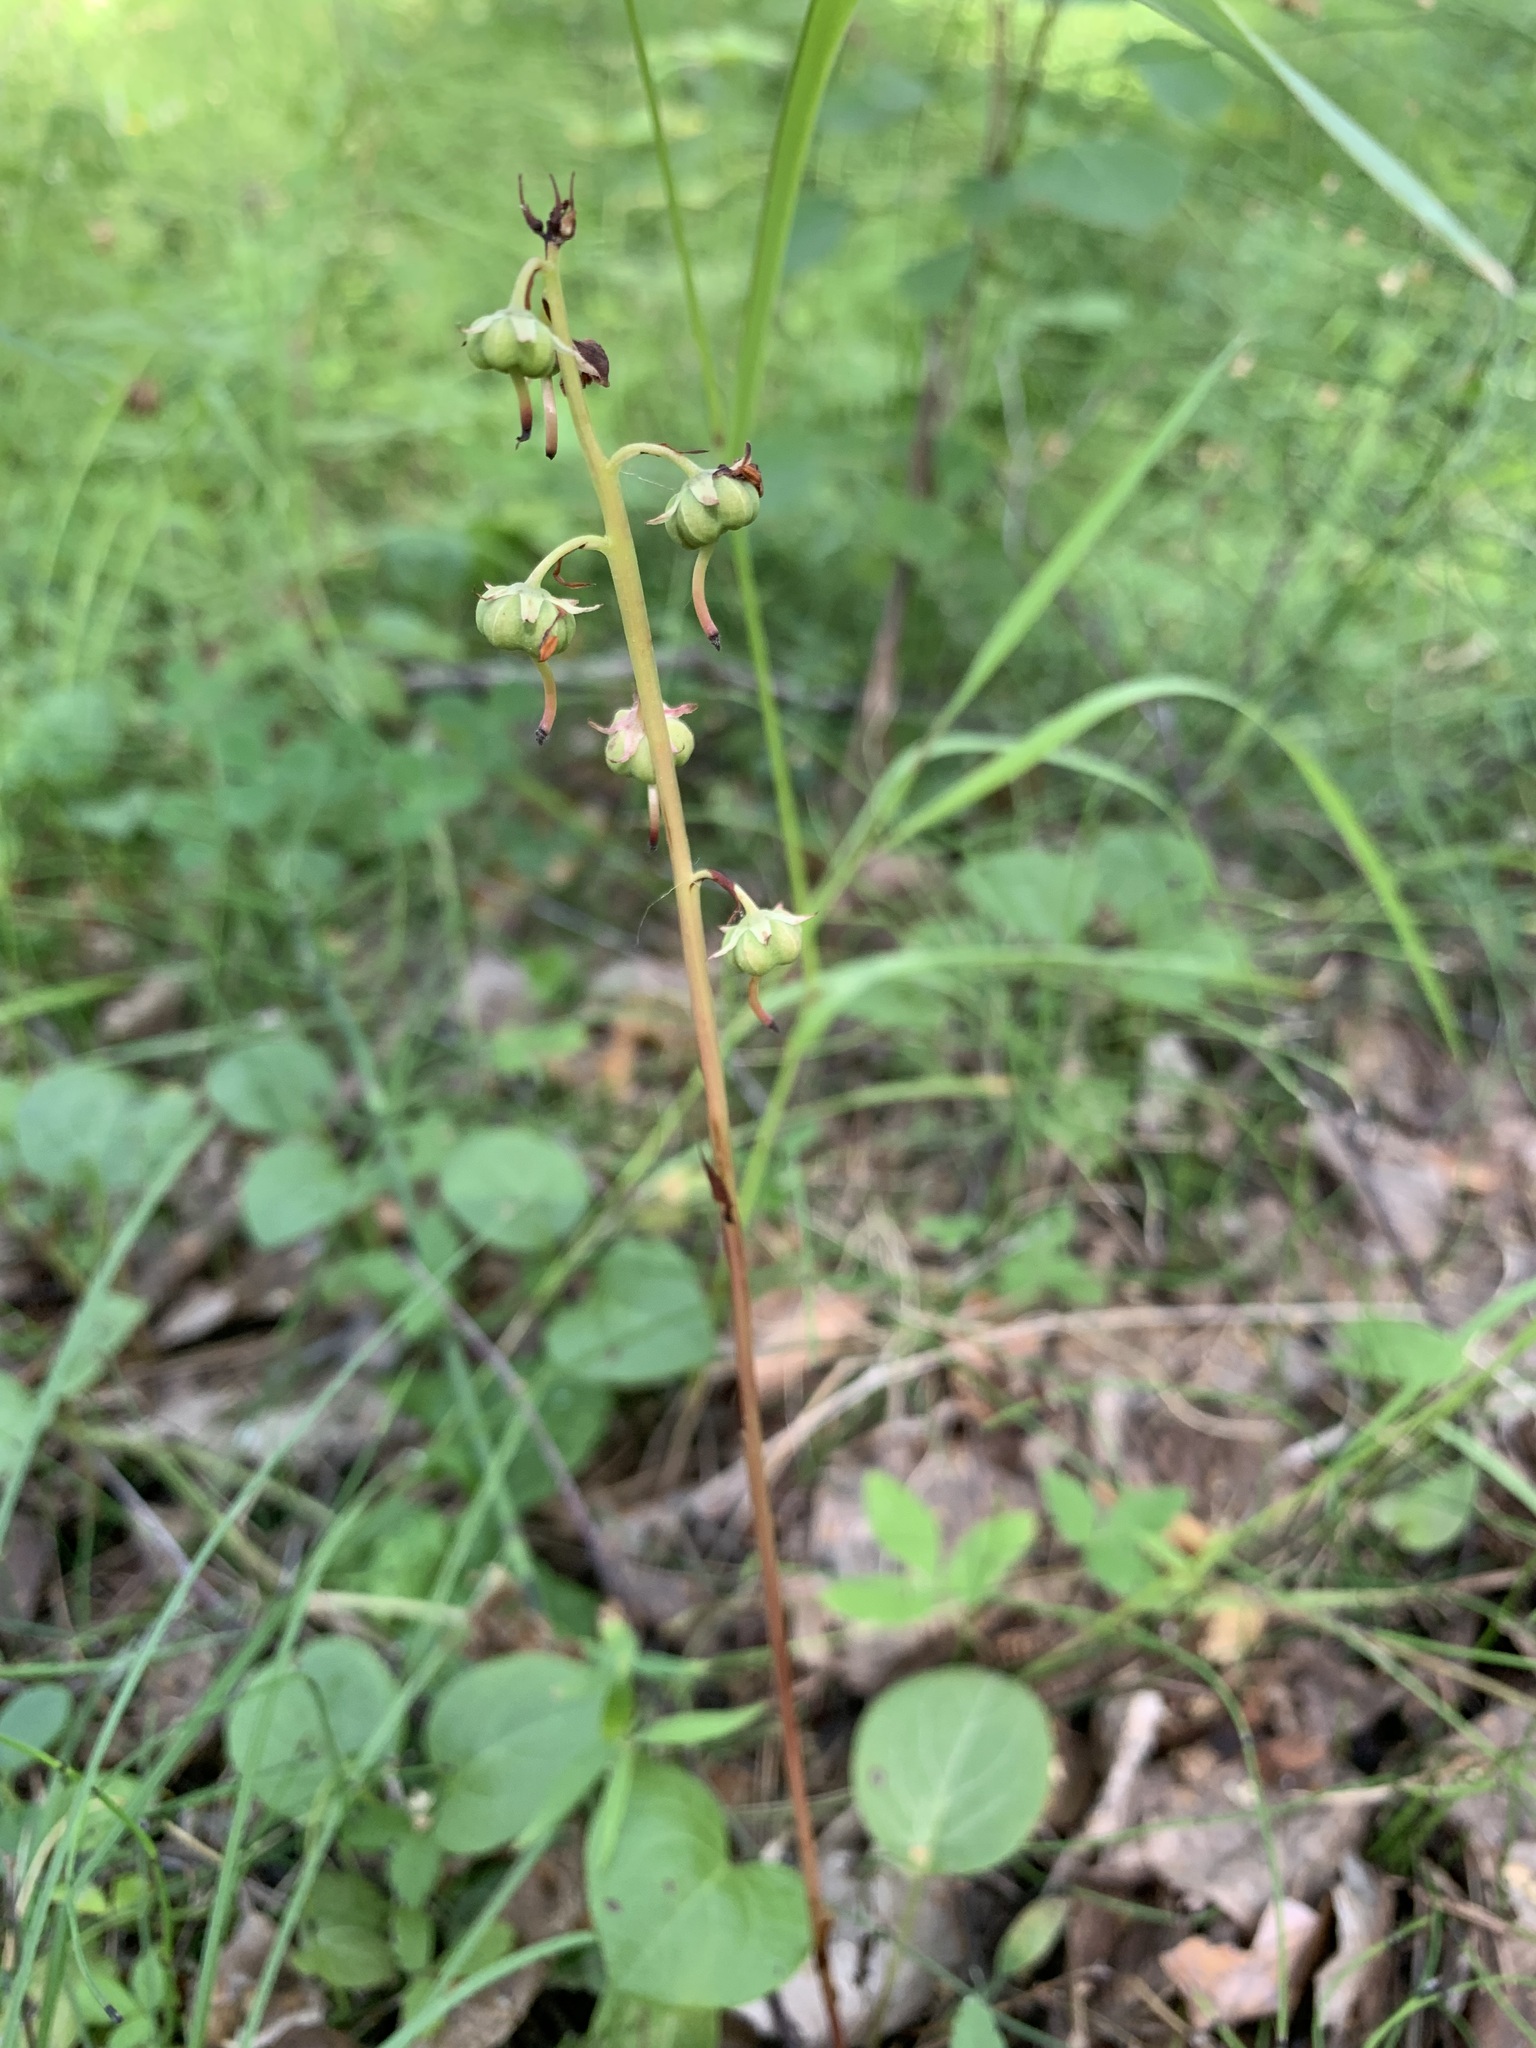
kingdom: Plantae
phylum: Tracheophyta
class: Magnoliopsida
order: Ericales
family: Ericaceae
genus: Pyrola
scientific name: Pyrola rotundifolia
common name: Round-leaved wintergreen
